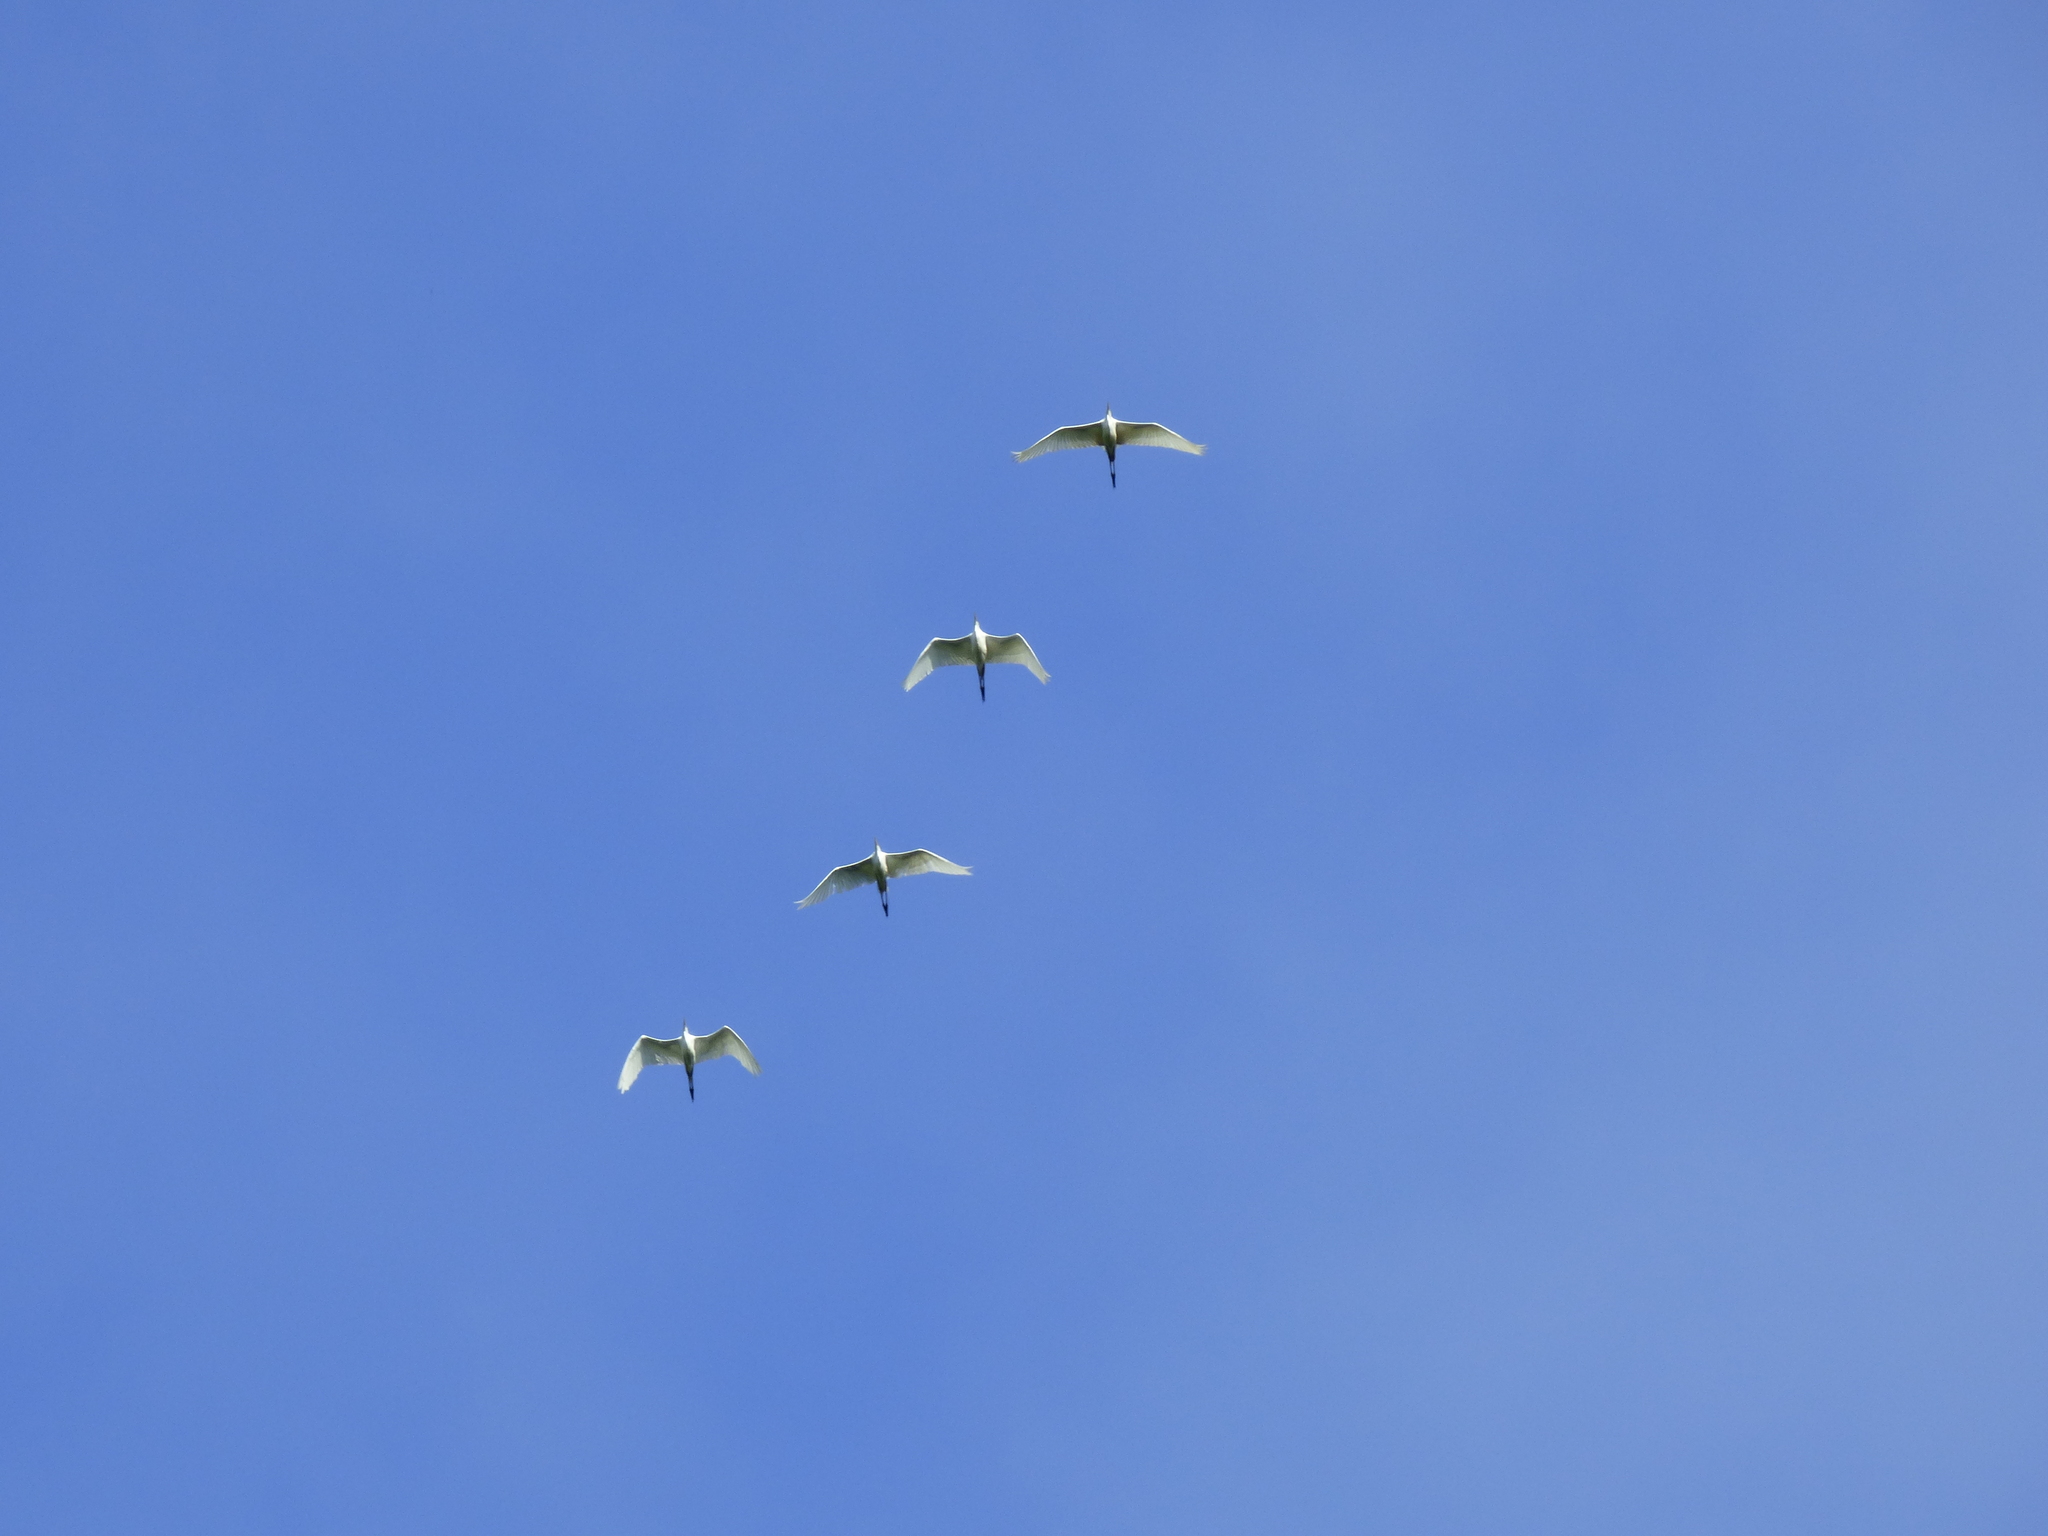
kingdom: Animalia
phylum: Chordata
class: Aves
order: Pelecaniformes
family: Ardeidae
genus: Ardea
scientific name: Ardea alba
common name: Great egret
